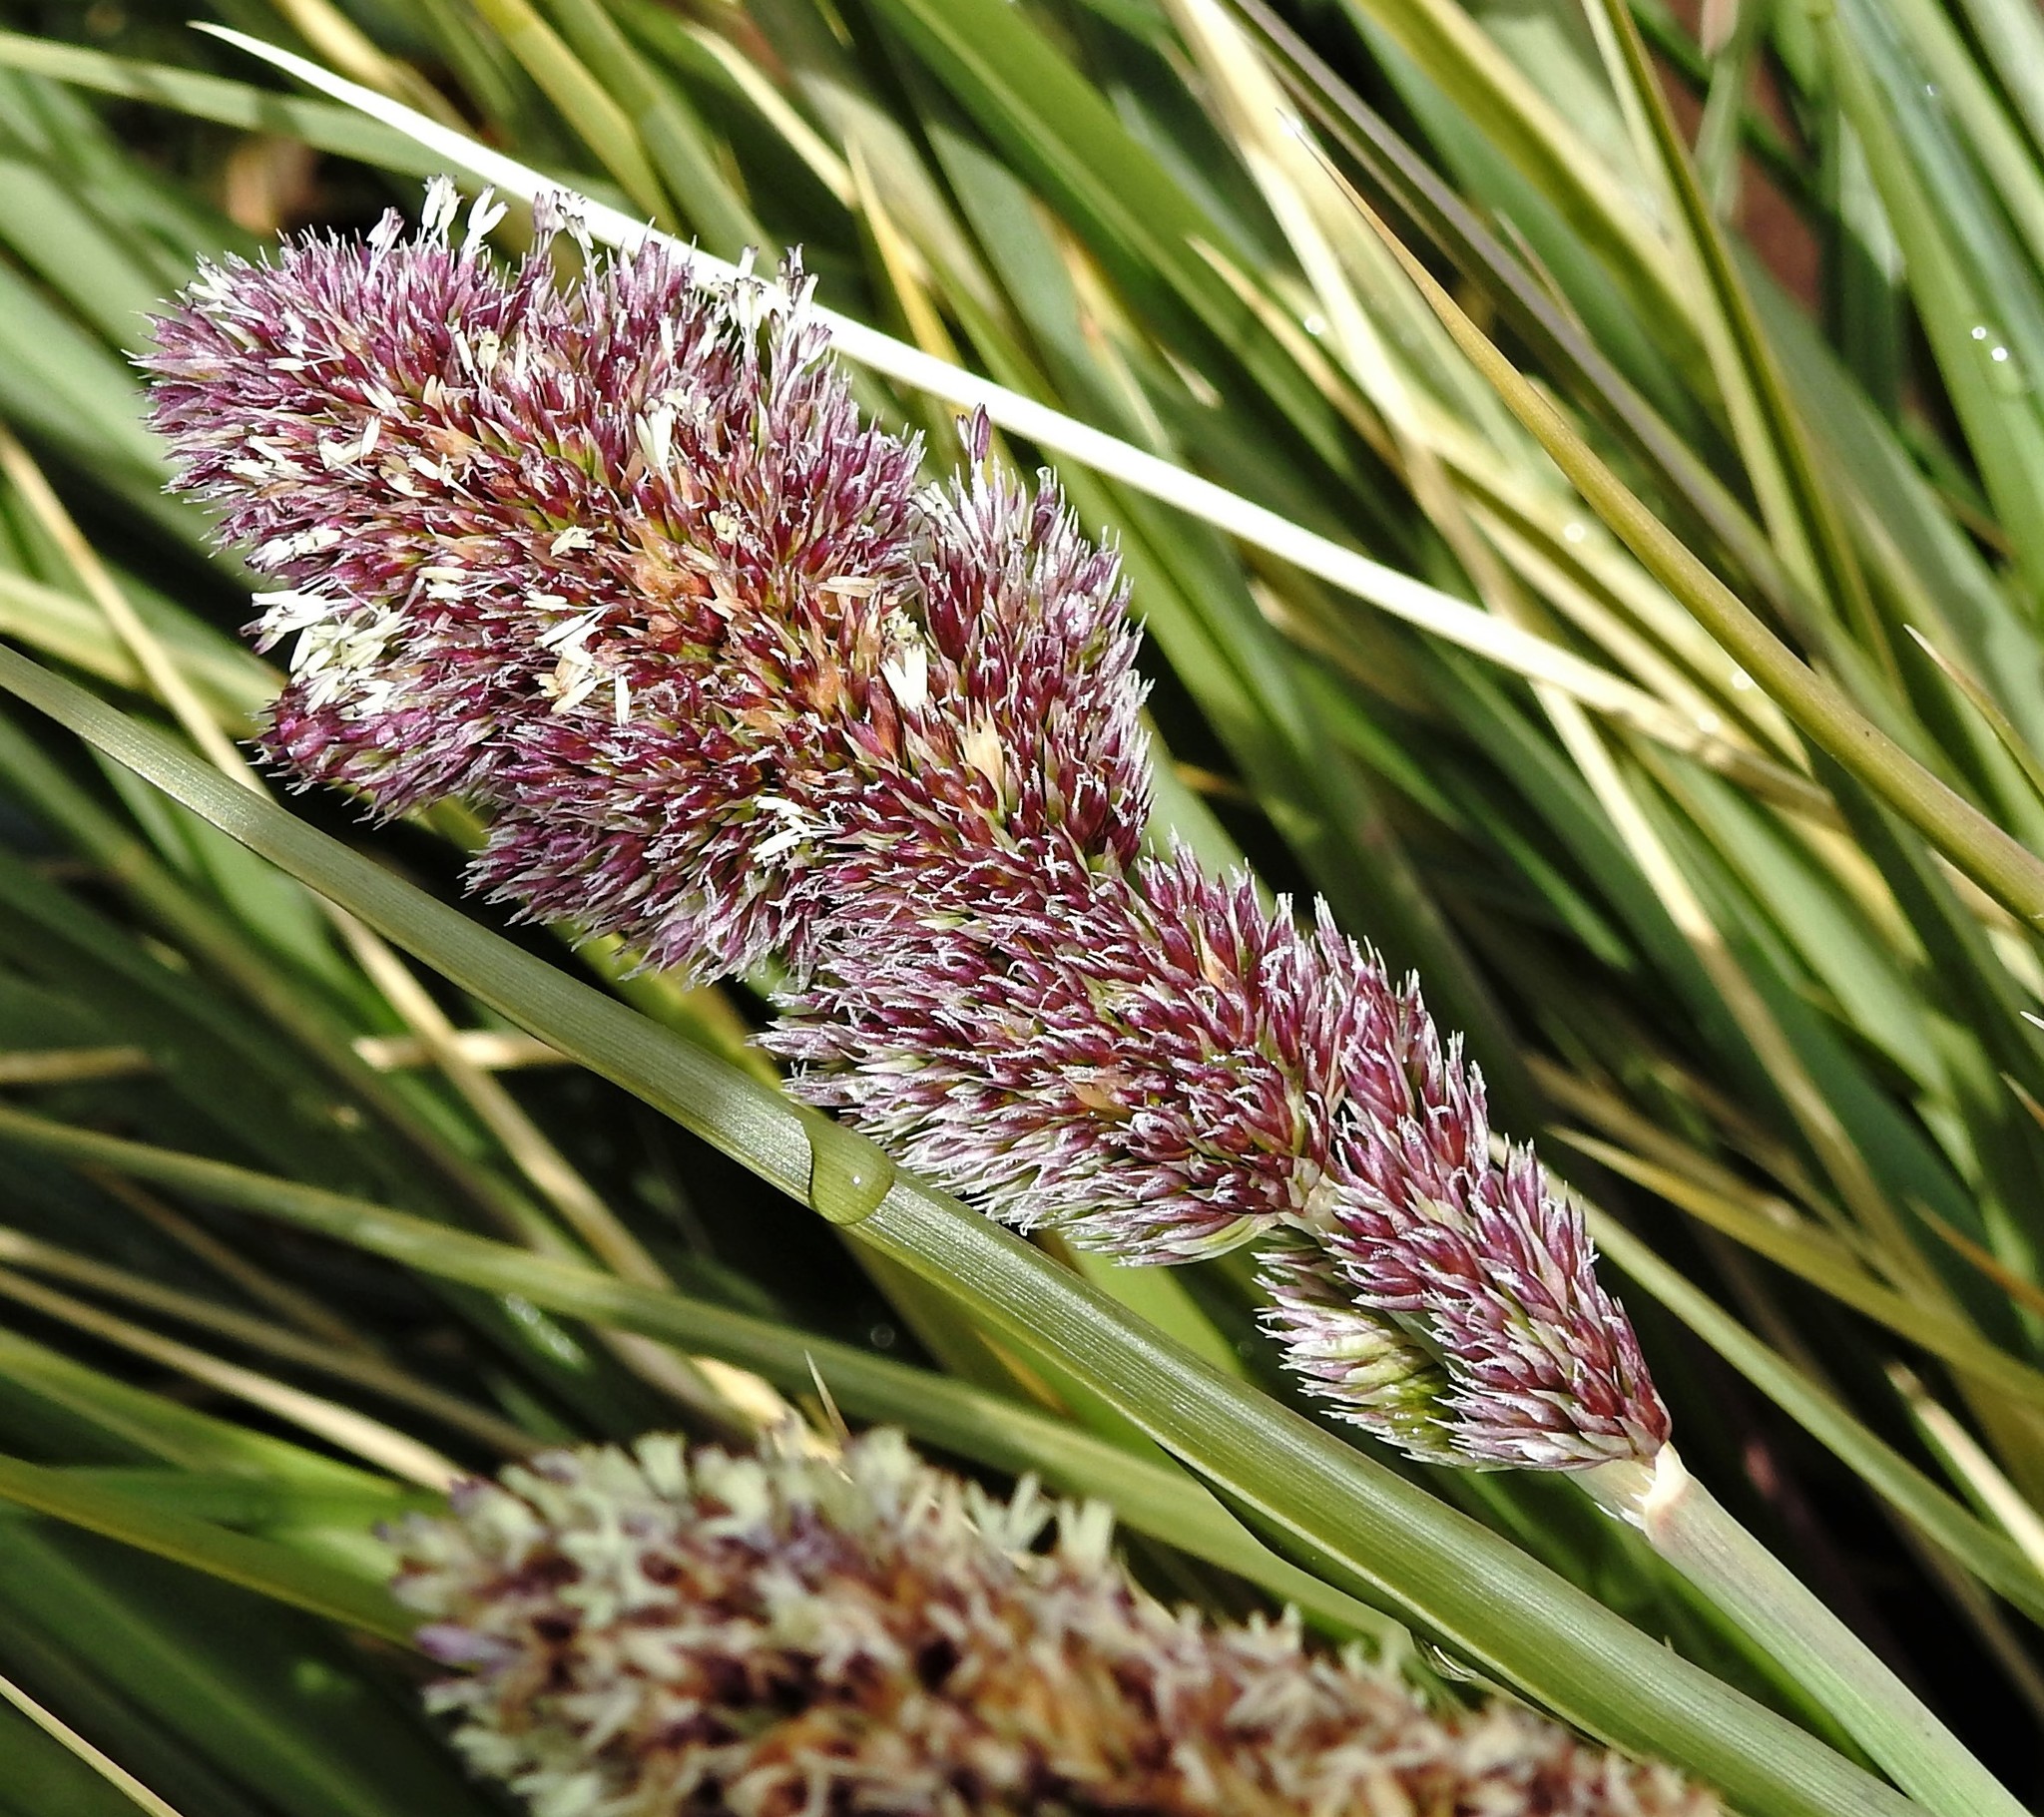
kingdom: Plantae
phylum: Tracheophyta
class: Liliopsida
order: Poales
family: Poaceae
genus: Poa
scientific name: Poa flabellata
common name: Tussac-grass
